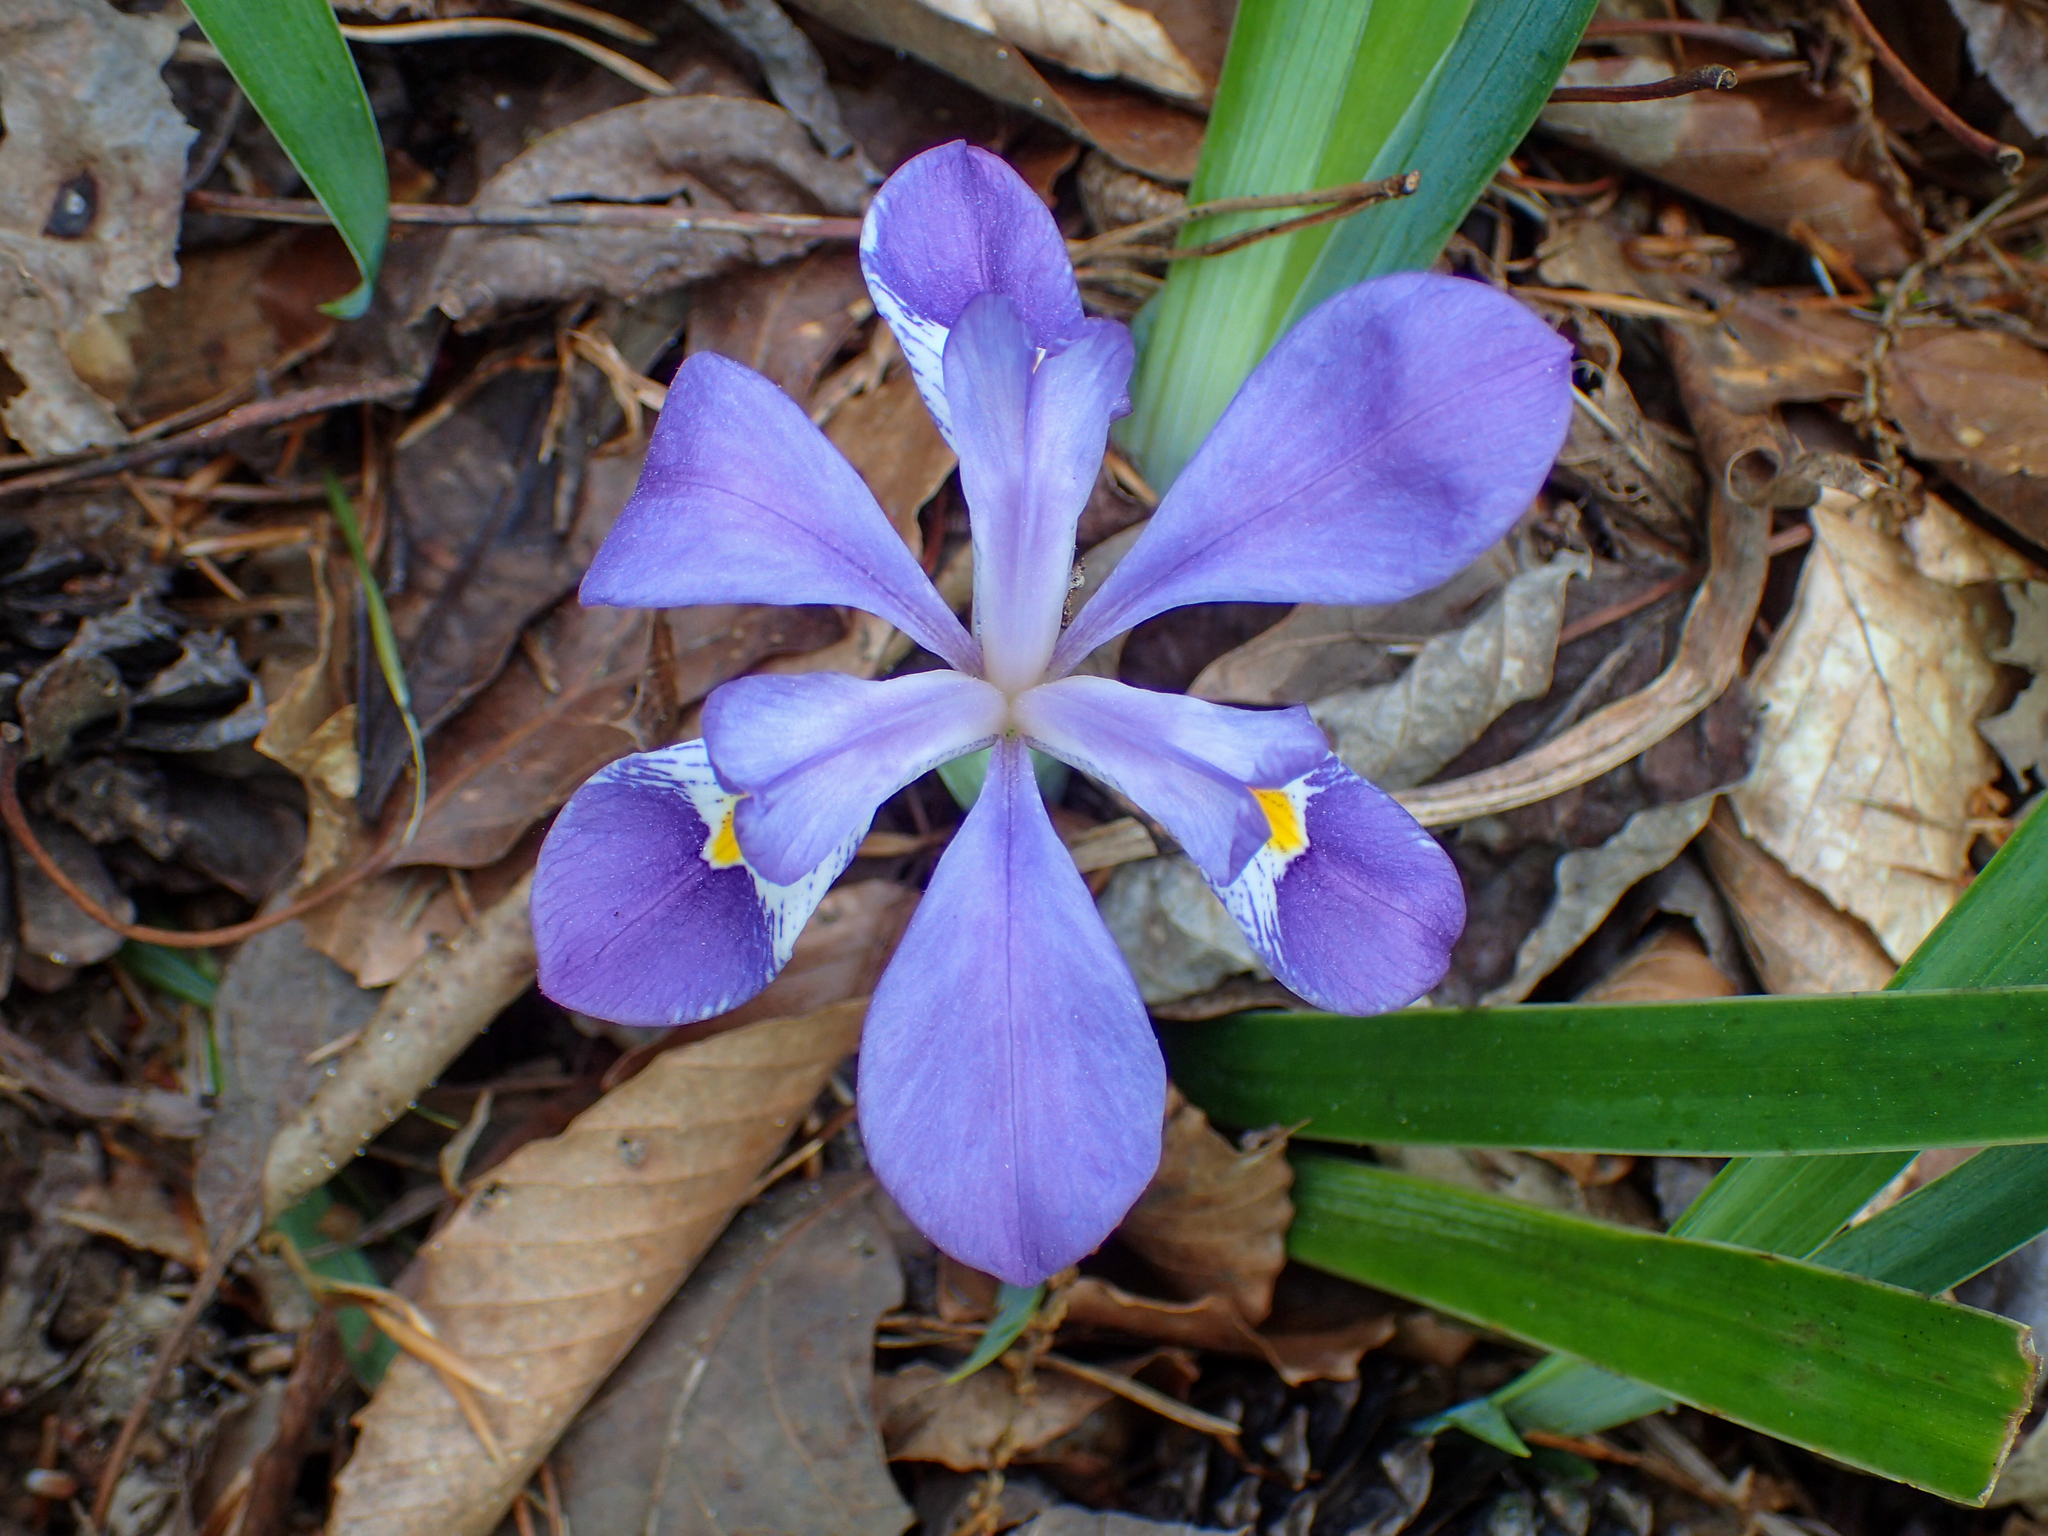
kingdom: Plantae
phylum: Tracheophyta
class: Liliopsida
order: Asparagales
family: Iridaceae
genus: Iris
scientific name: Iris verna
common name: Dwarf iris
